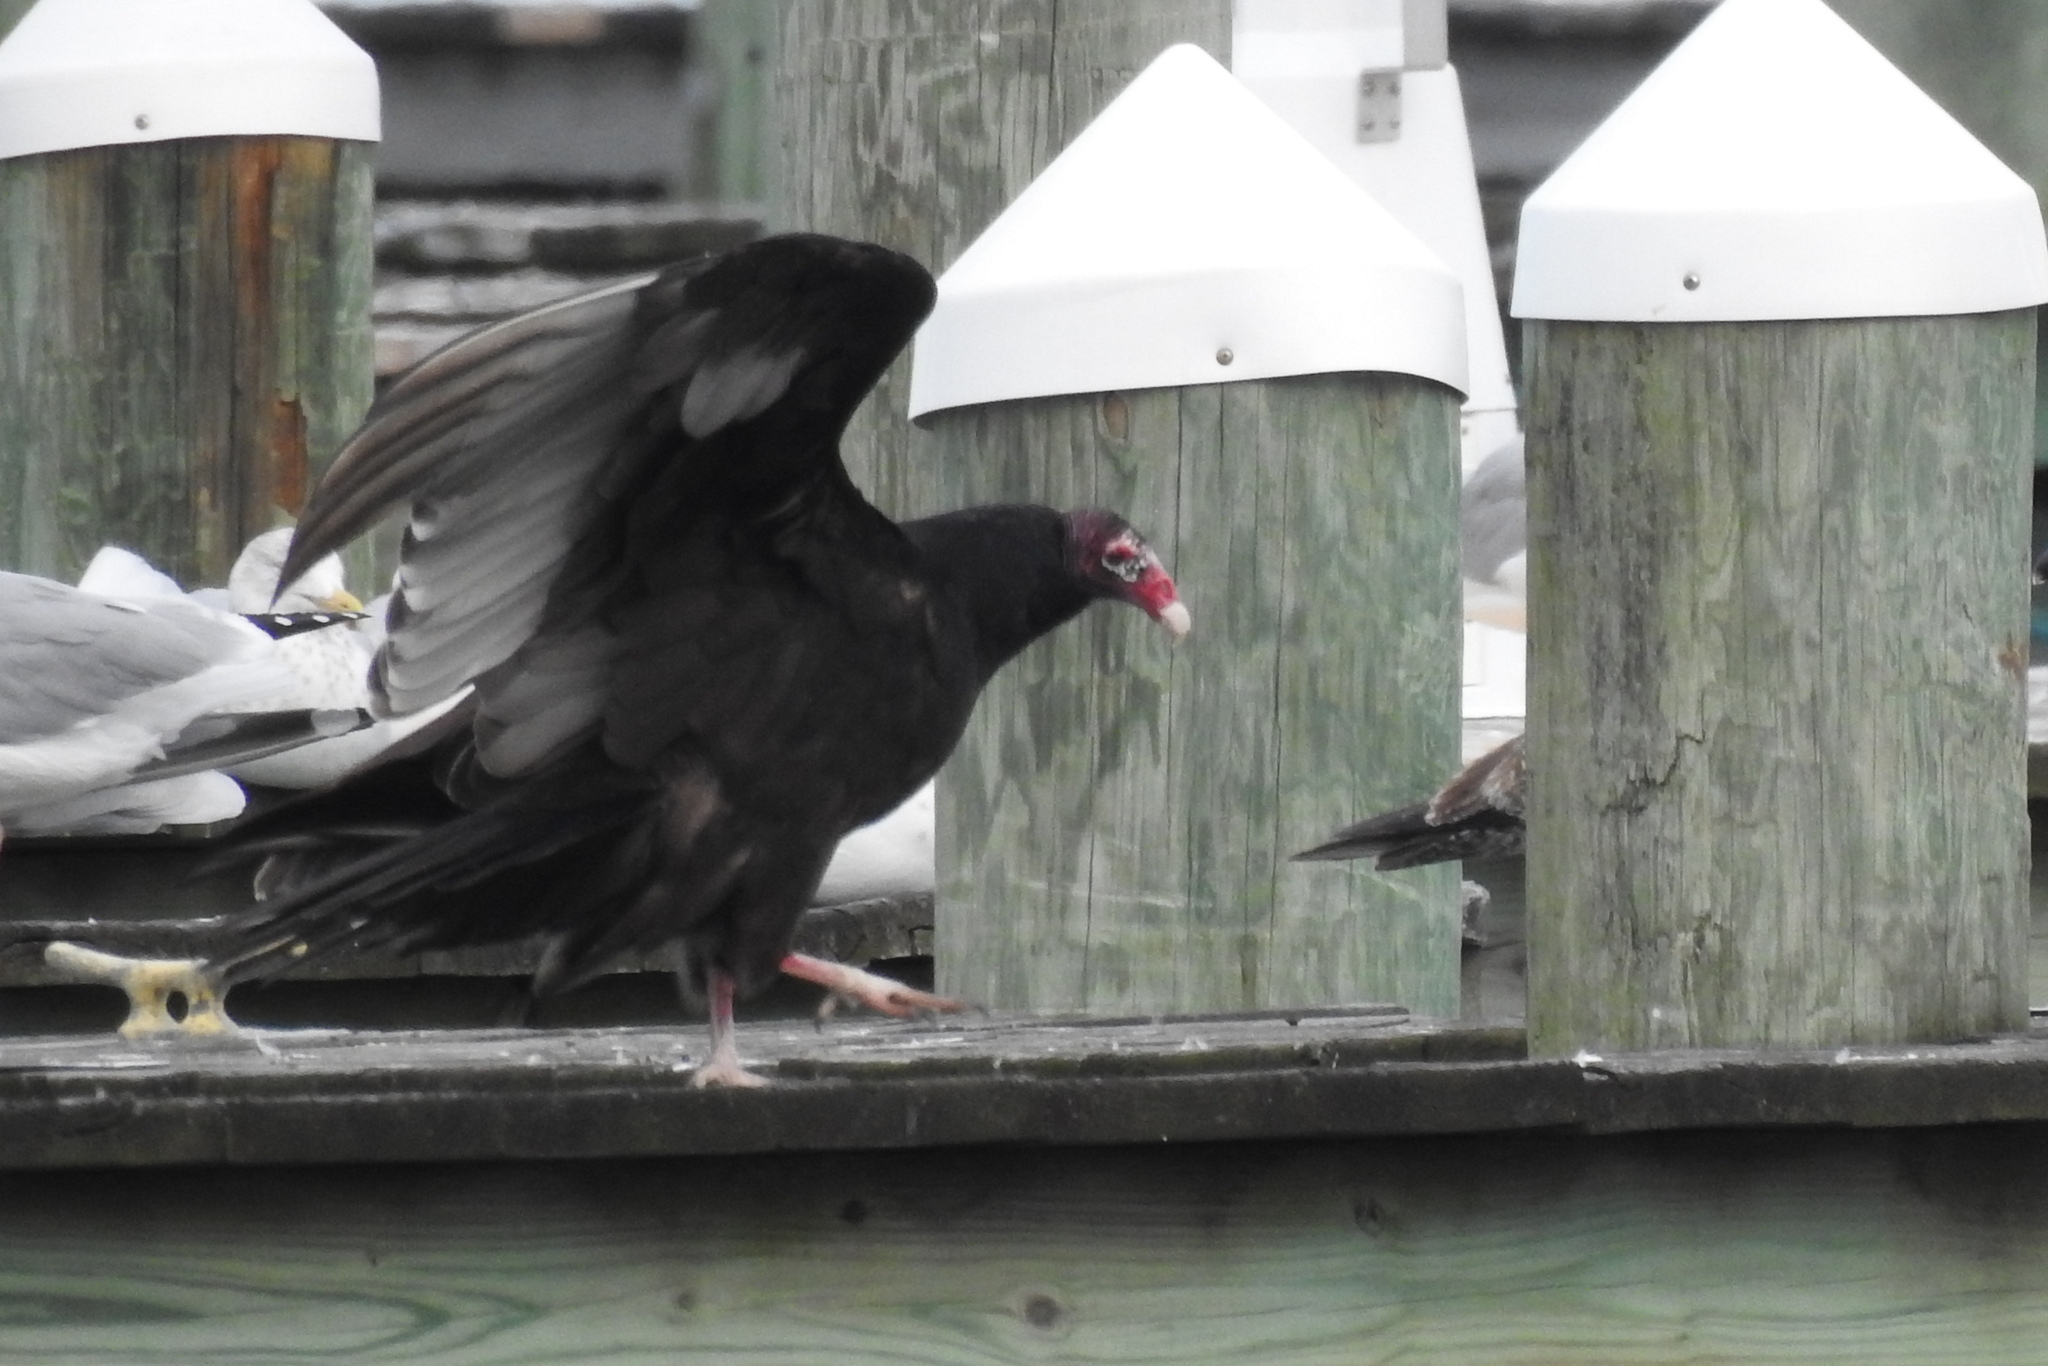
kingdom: Animalia
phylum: Chordata
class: Aves
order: Accipitriformes
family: Cathartidae
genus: Cathartes
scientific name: Cathartes aura
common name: Turkey vulture
